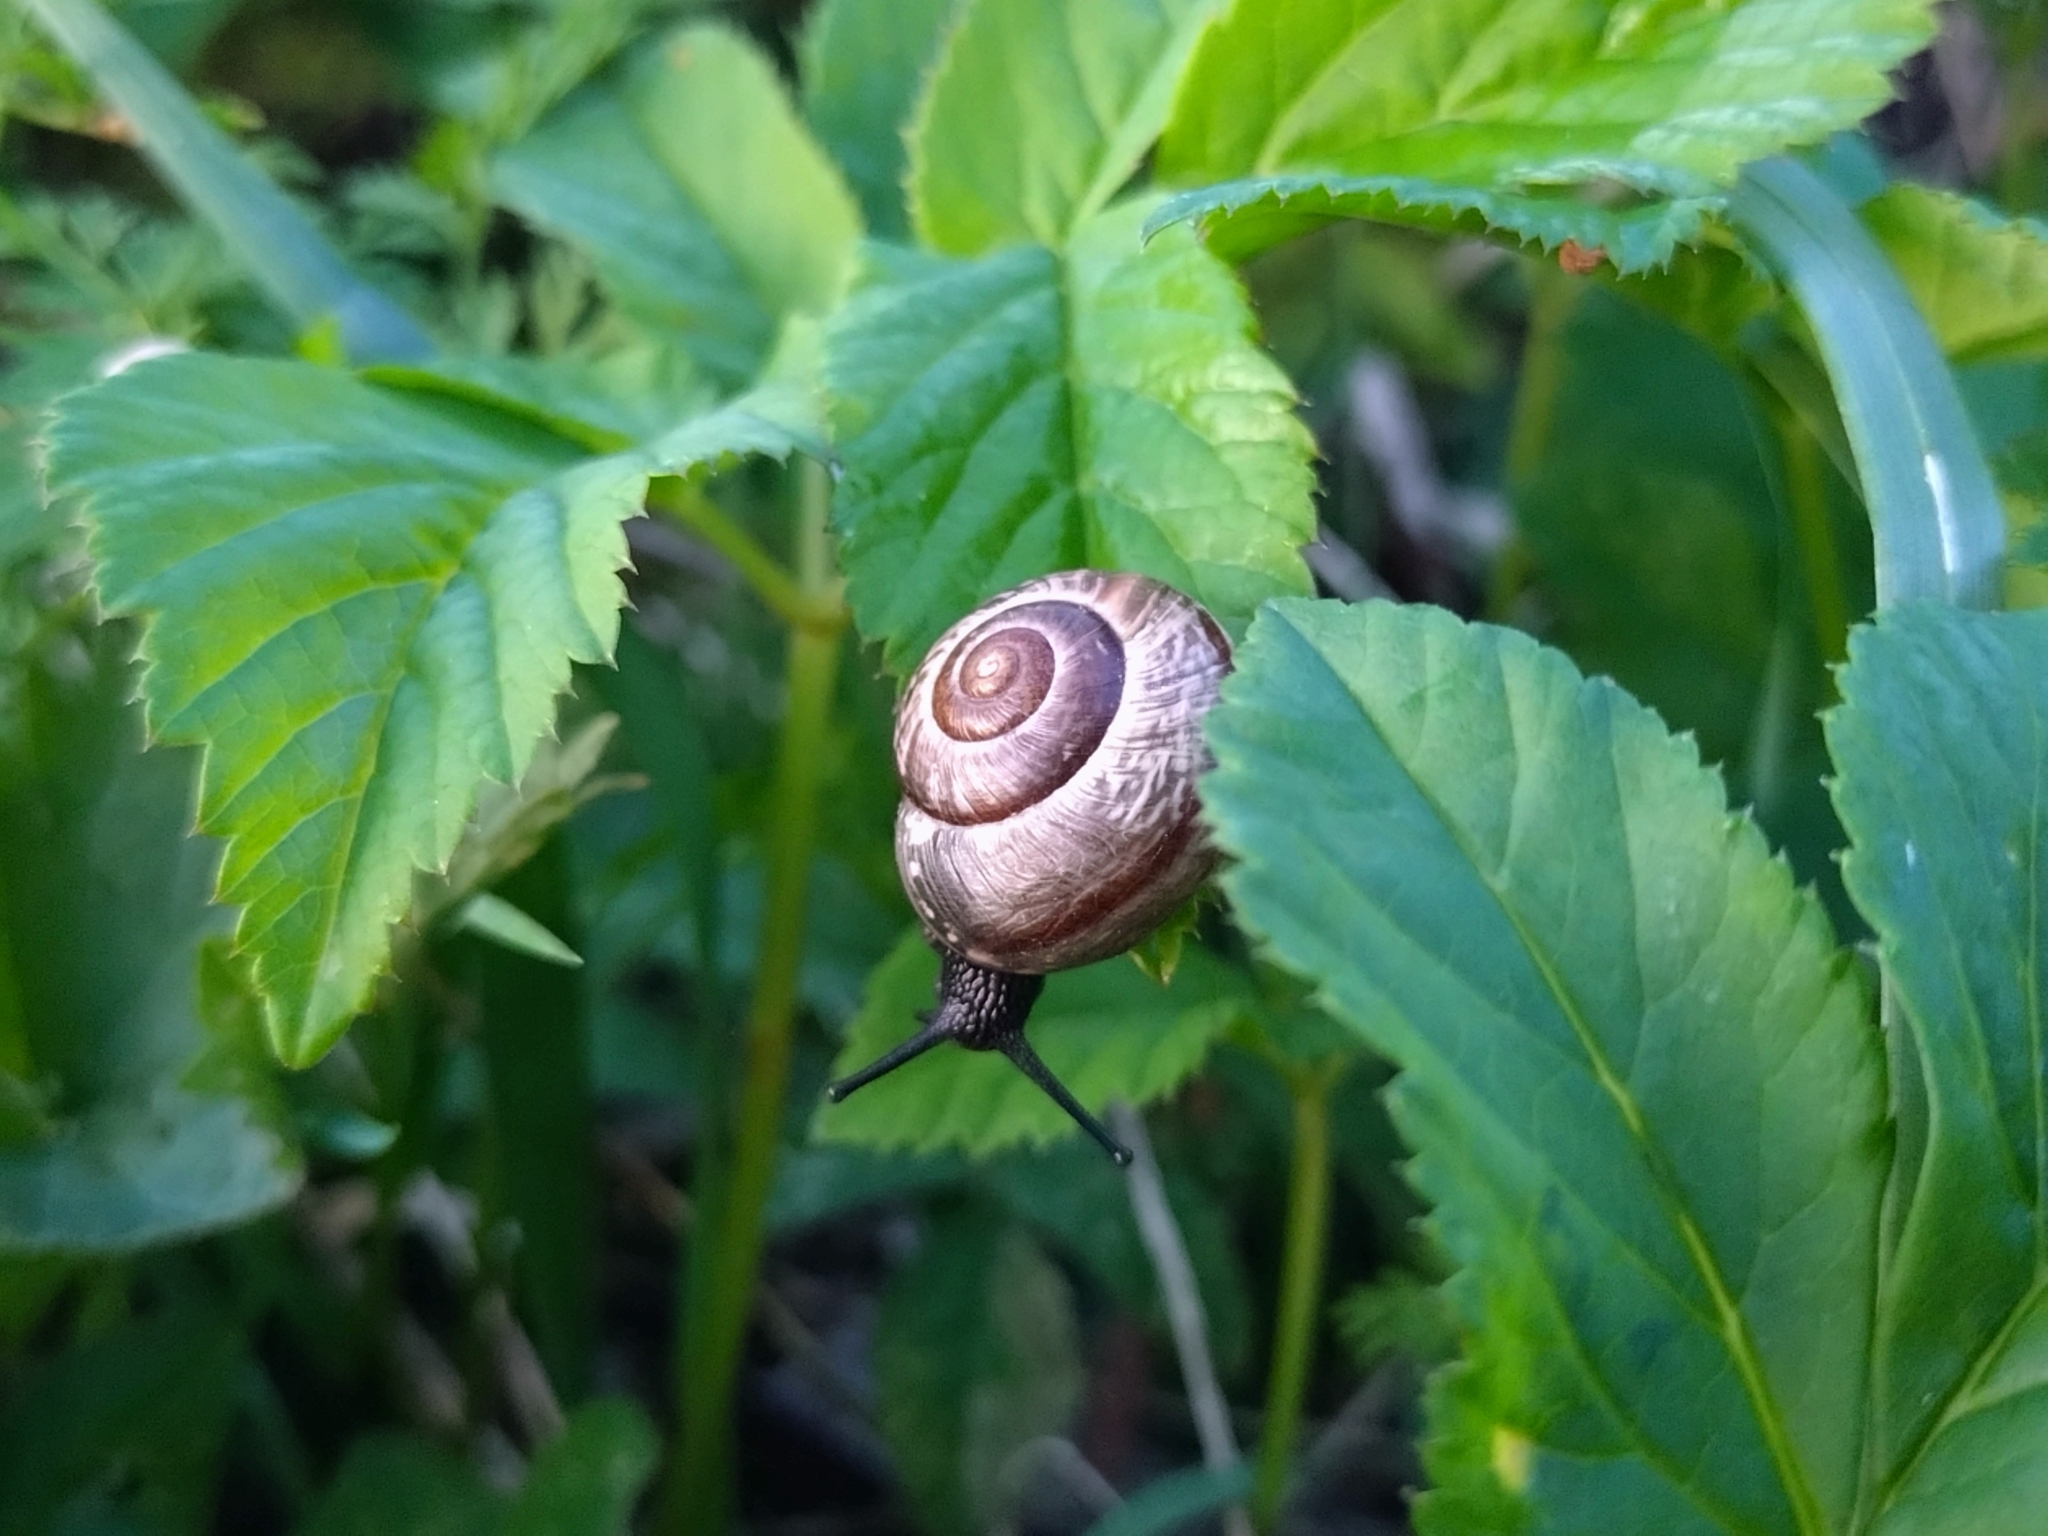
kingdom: Animalia
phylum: Mollusca
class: Gastropoda
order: Stylommatophora
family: Helicidae
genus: Arianta
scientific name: Arianta arbustorum
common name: Copse snail
